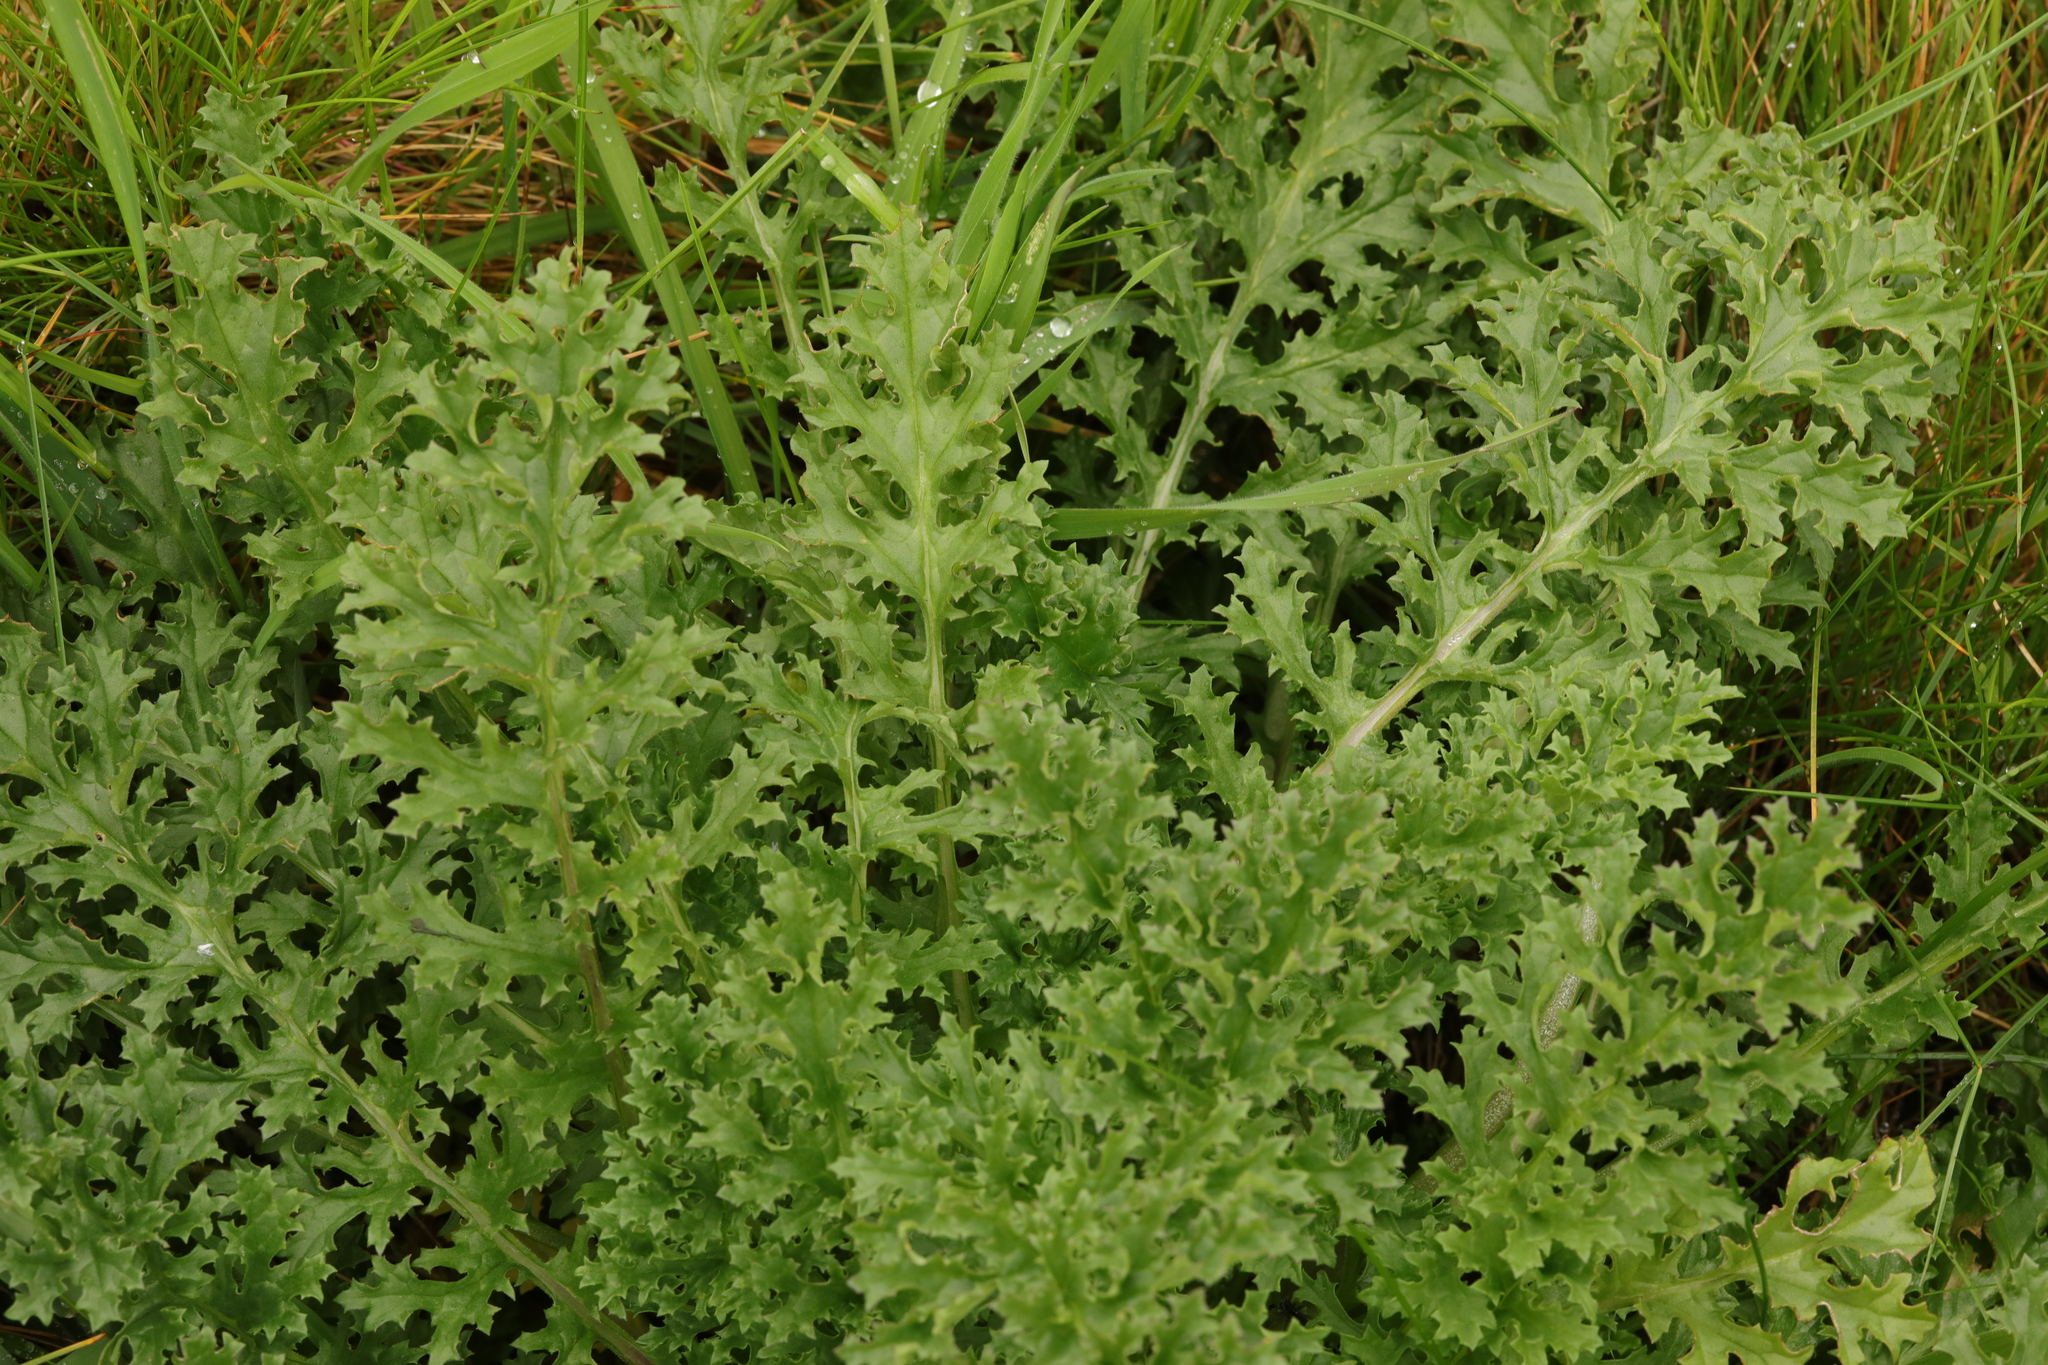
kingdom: Plantae
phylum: Tracheophyta
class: Magnoliopsida
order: Asterales
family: Asteraceae
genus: Jacobaea
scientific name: Jacobaea vulgaris
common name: Stinking willie
